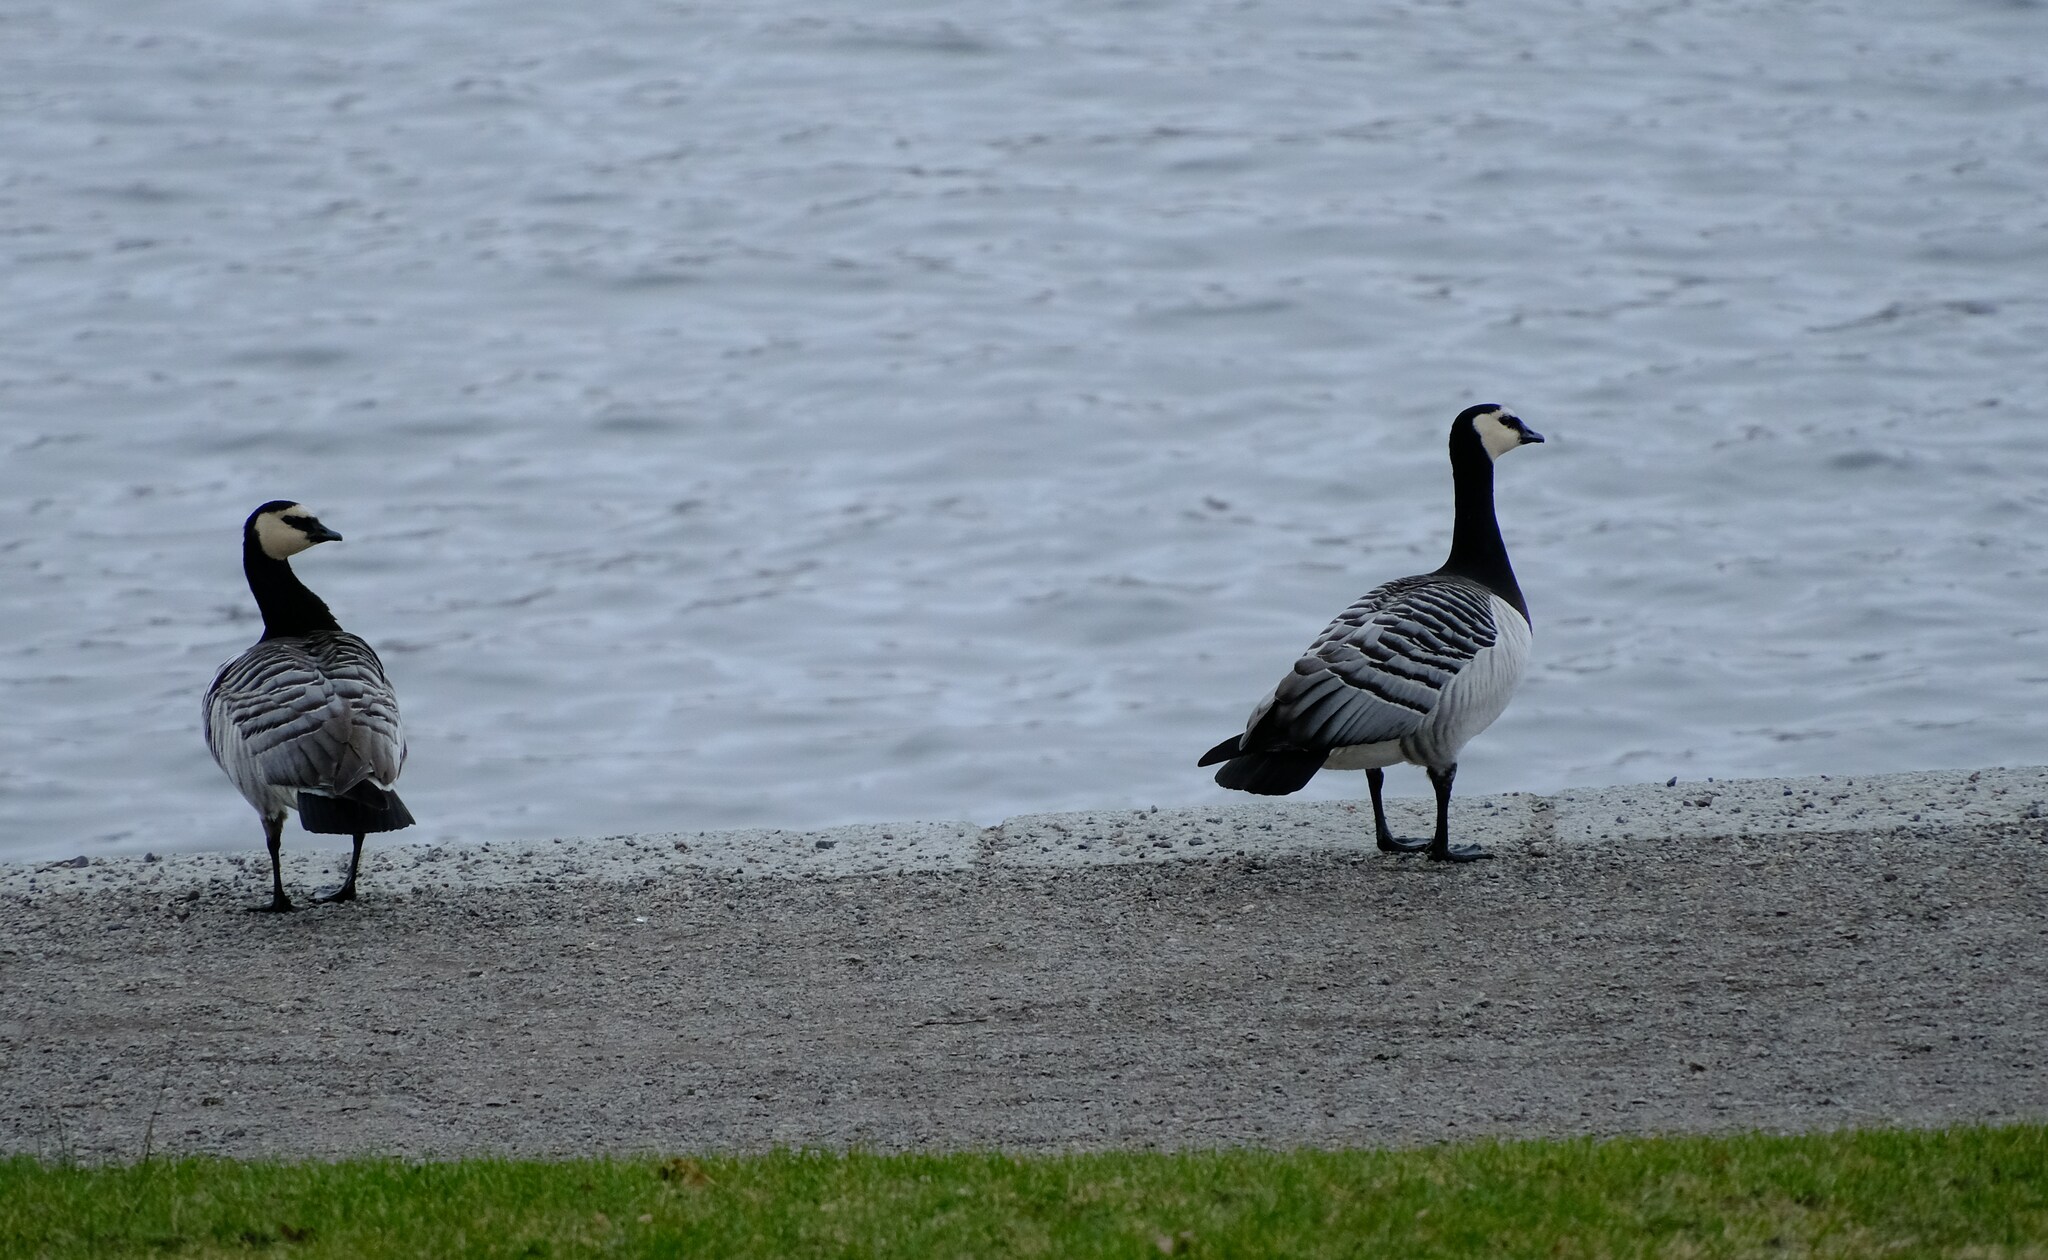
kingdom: Animalia
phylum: Chordata
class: Aves
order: Anseriformes
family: Anatidae
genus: Branta
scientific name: Branta leucopsis
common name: Barnacle goose
